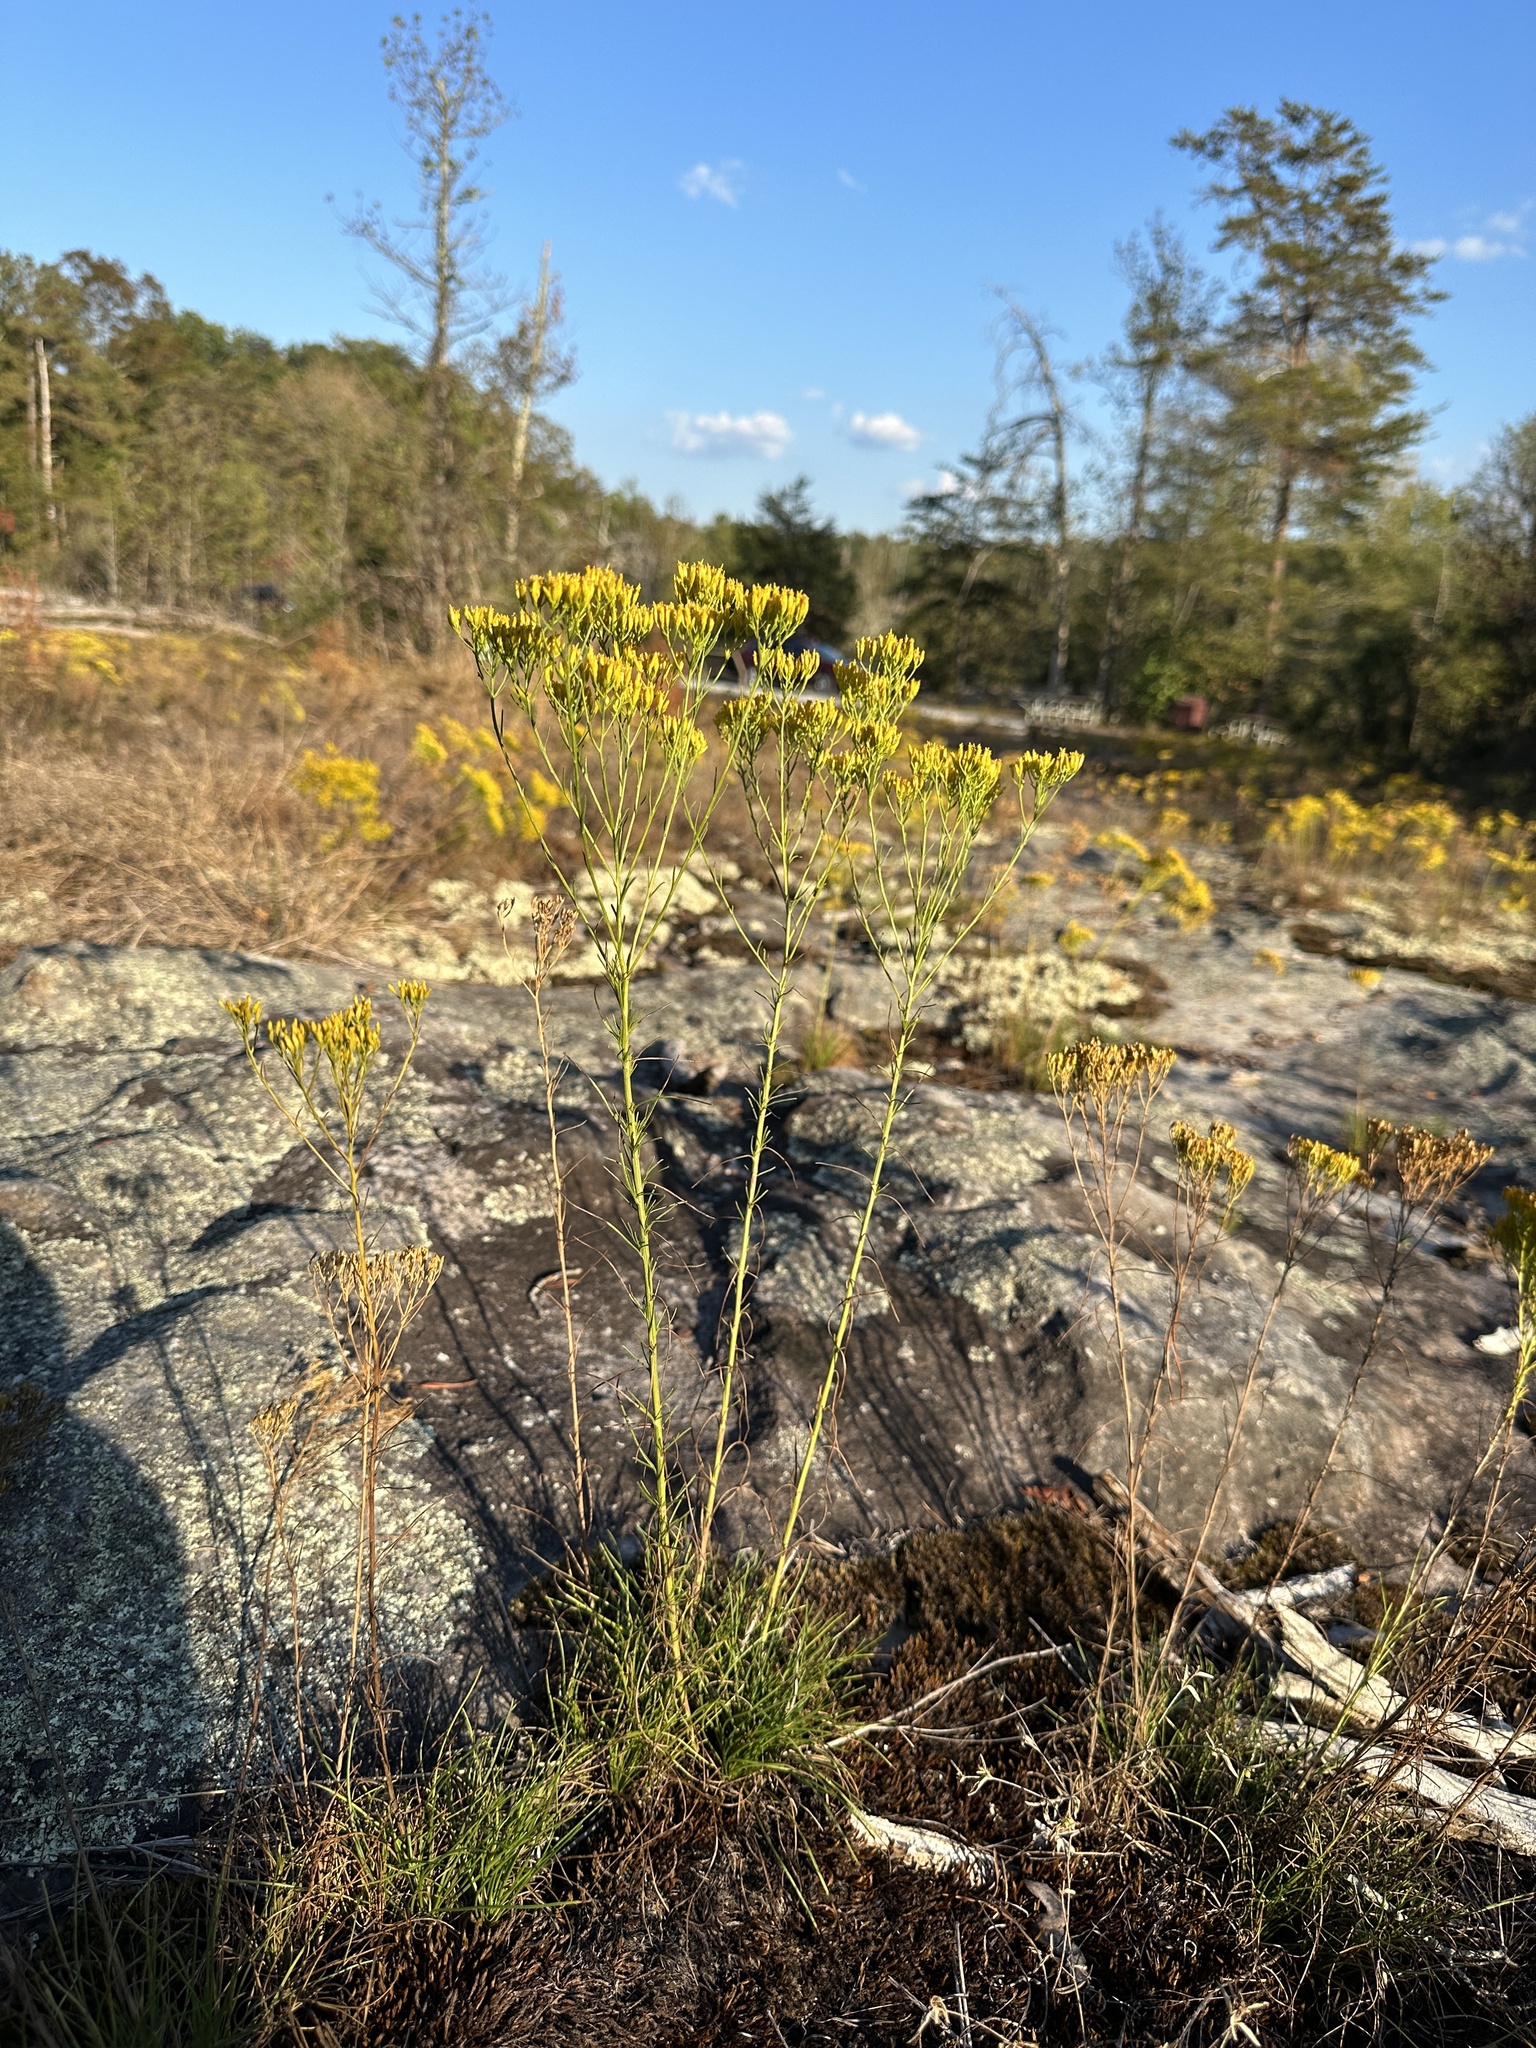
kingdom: Plantae
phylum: Tracheophyta
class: Magnoliopsida
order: Asterales
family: Asteraceae
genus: Bigelowia
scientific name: Bigelowia nuttallii
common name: Nuttall's rayless-goldenrod
